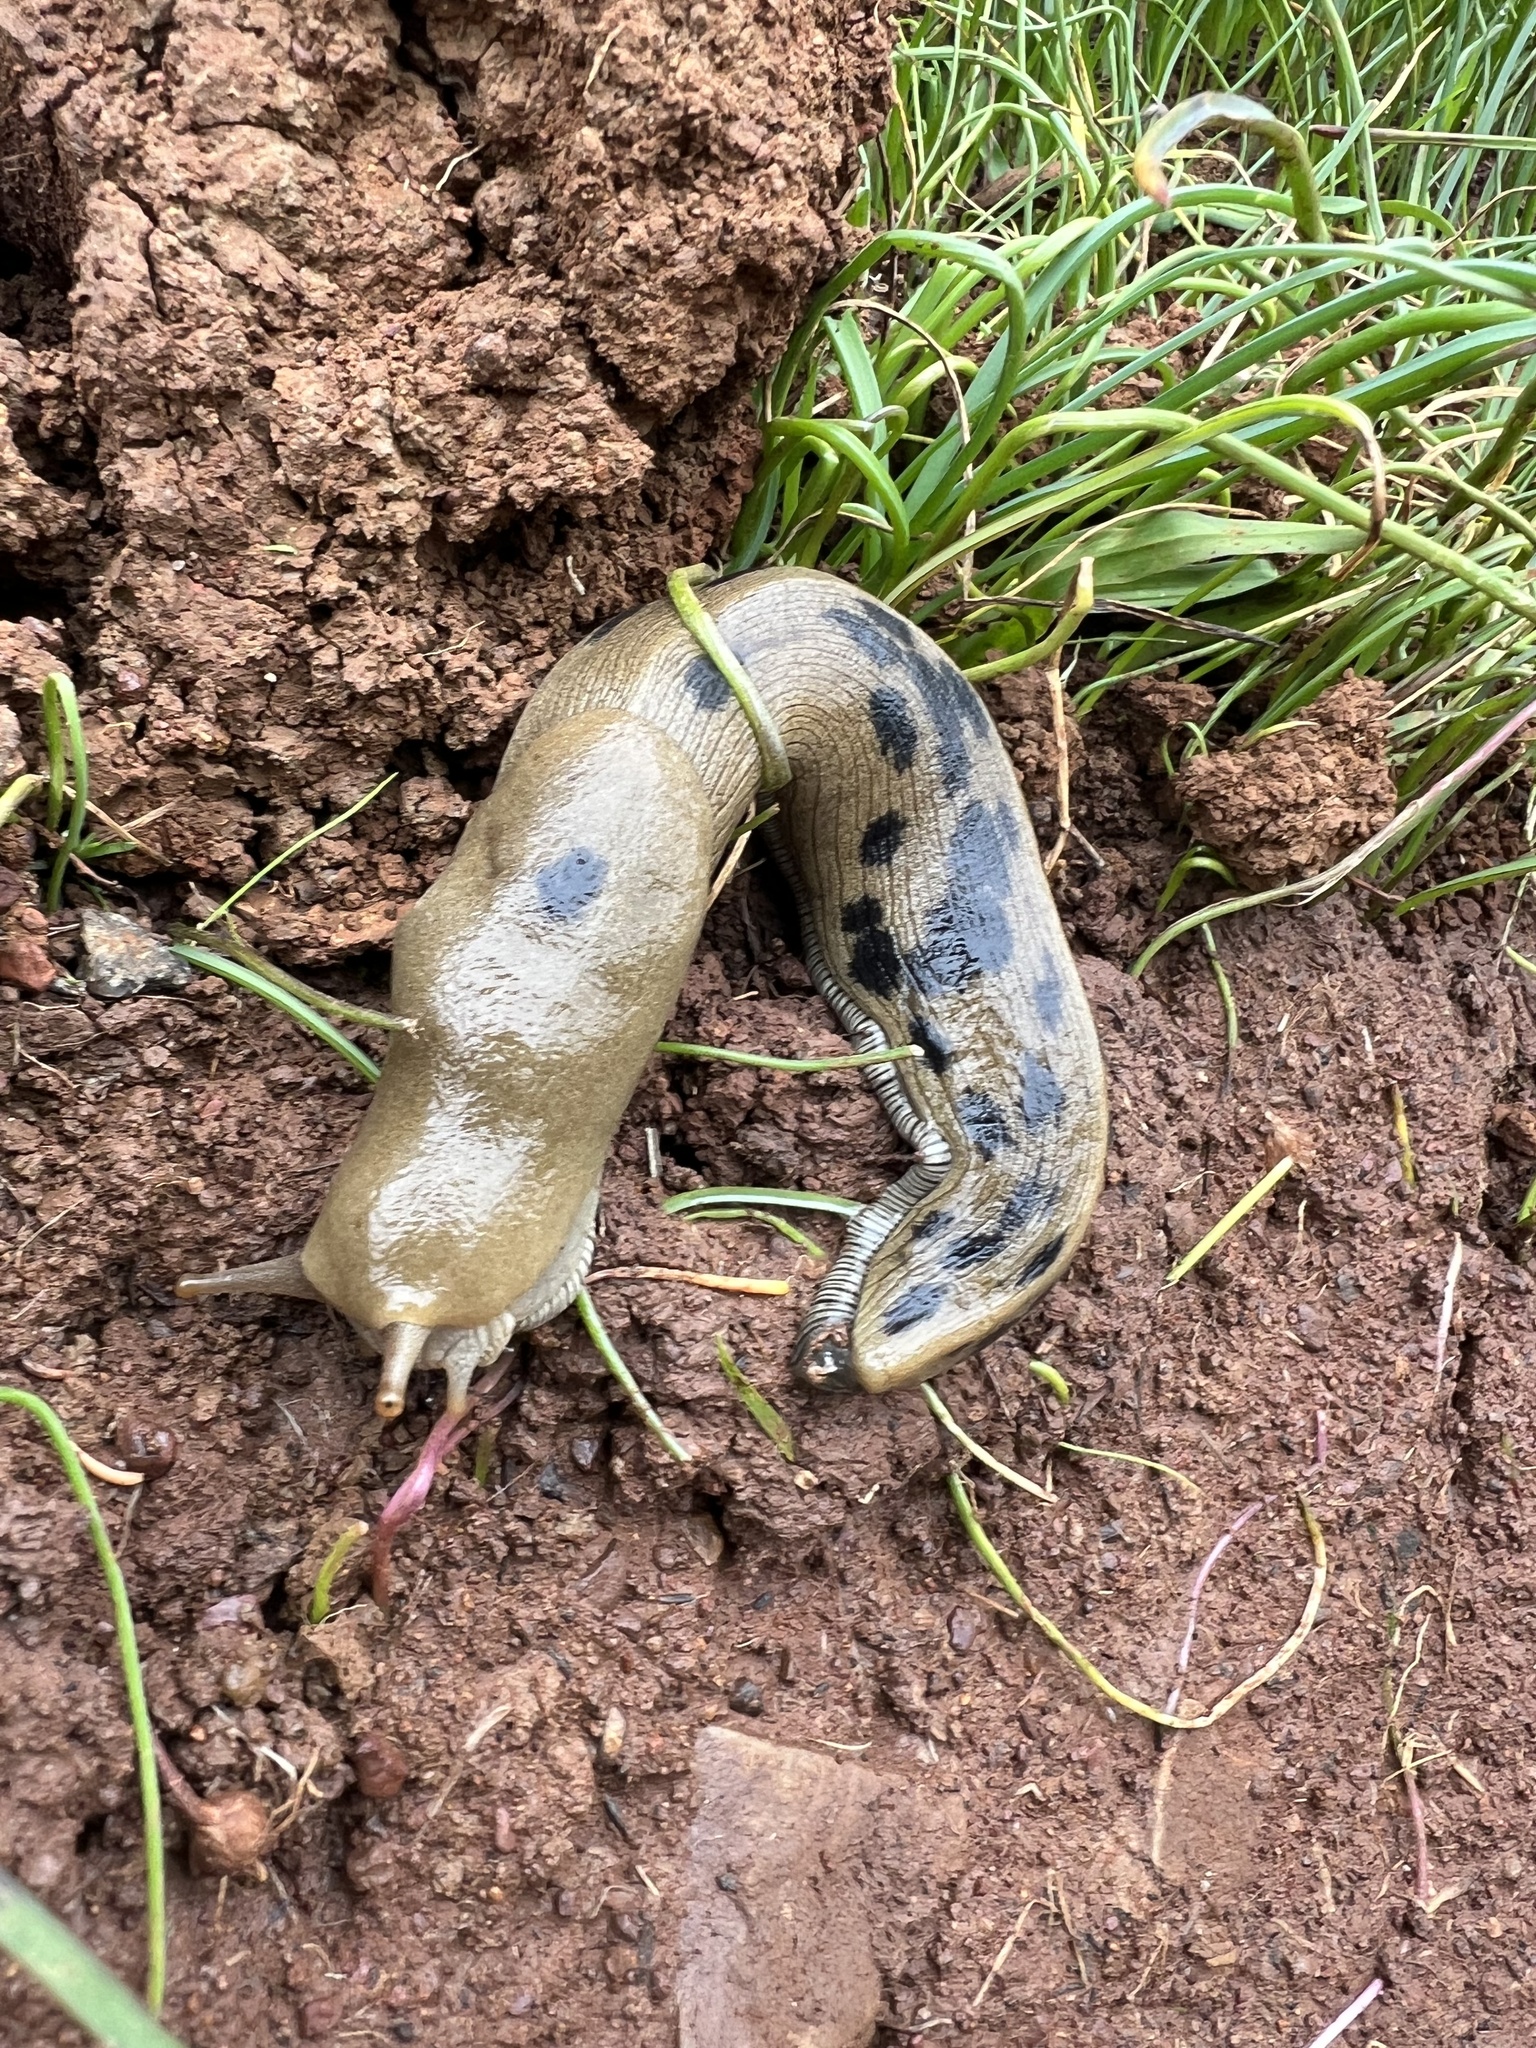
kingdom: Animalia
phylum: Mollusca
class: Gastropoda
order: Stylommatophora
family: Ariolimacidae
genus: Ariolimax
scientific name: Ariolimax buttoni
